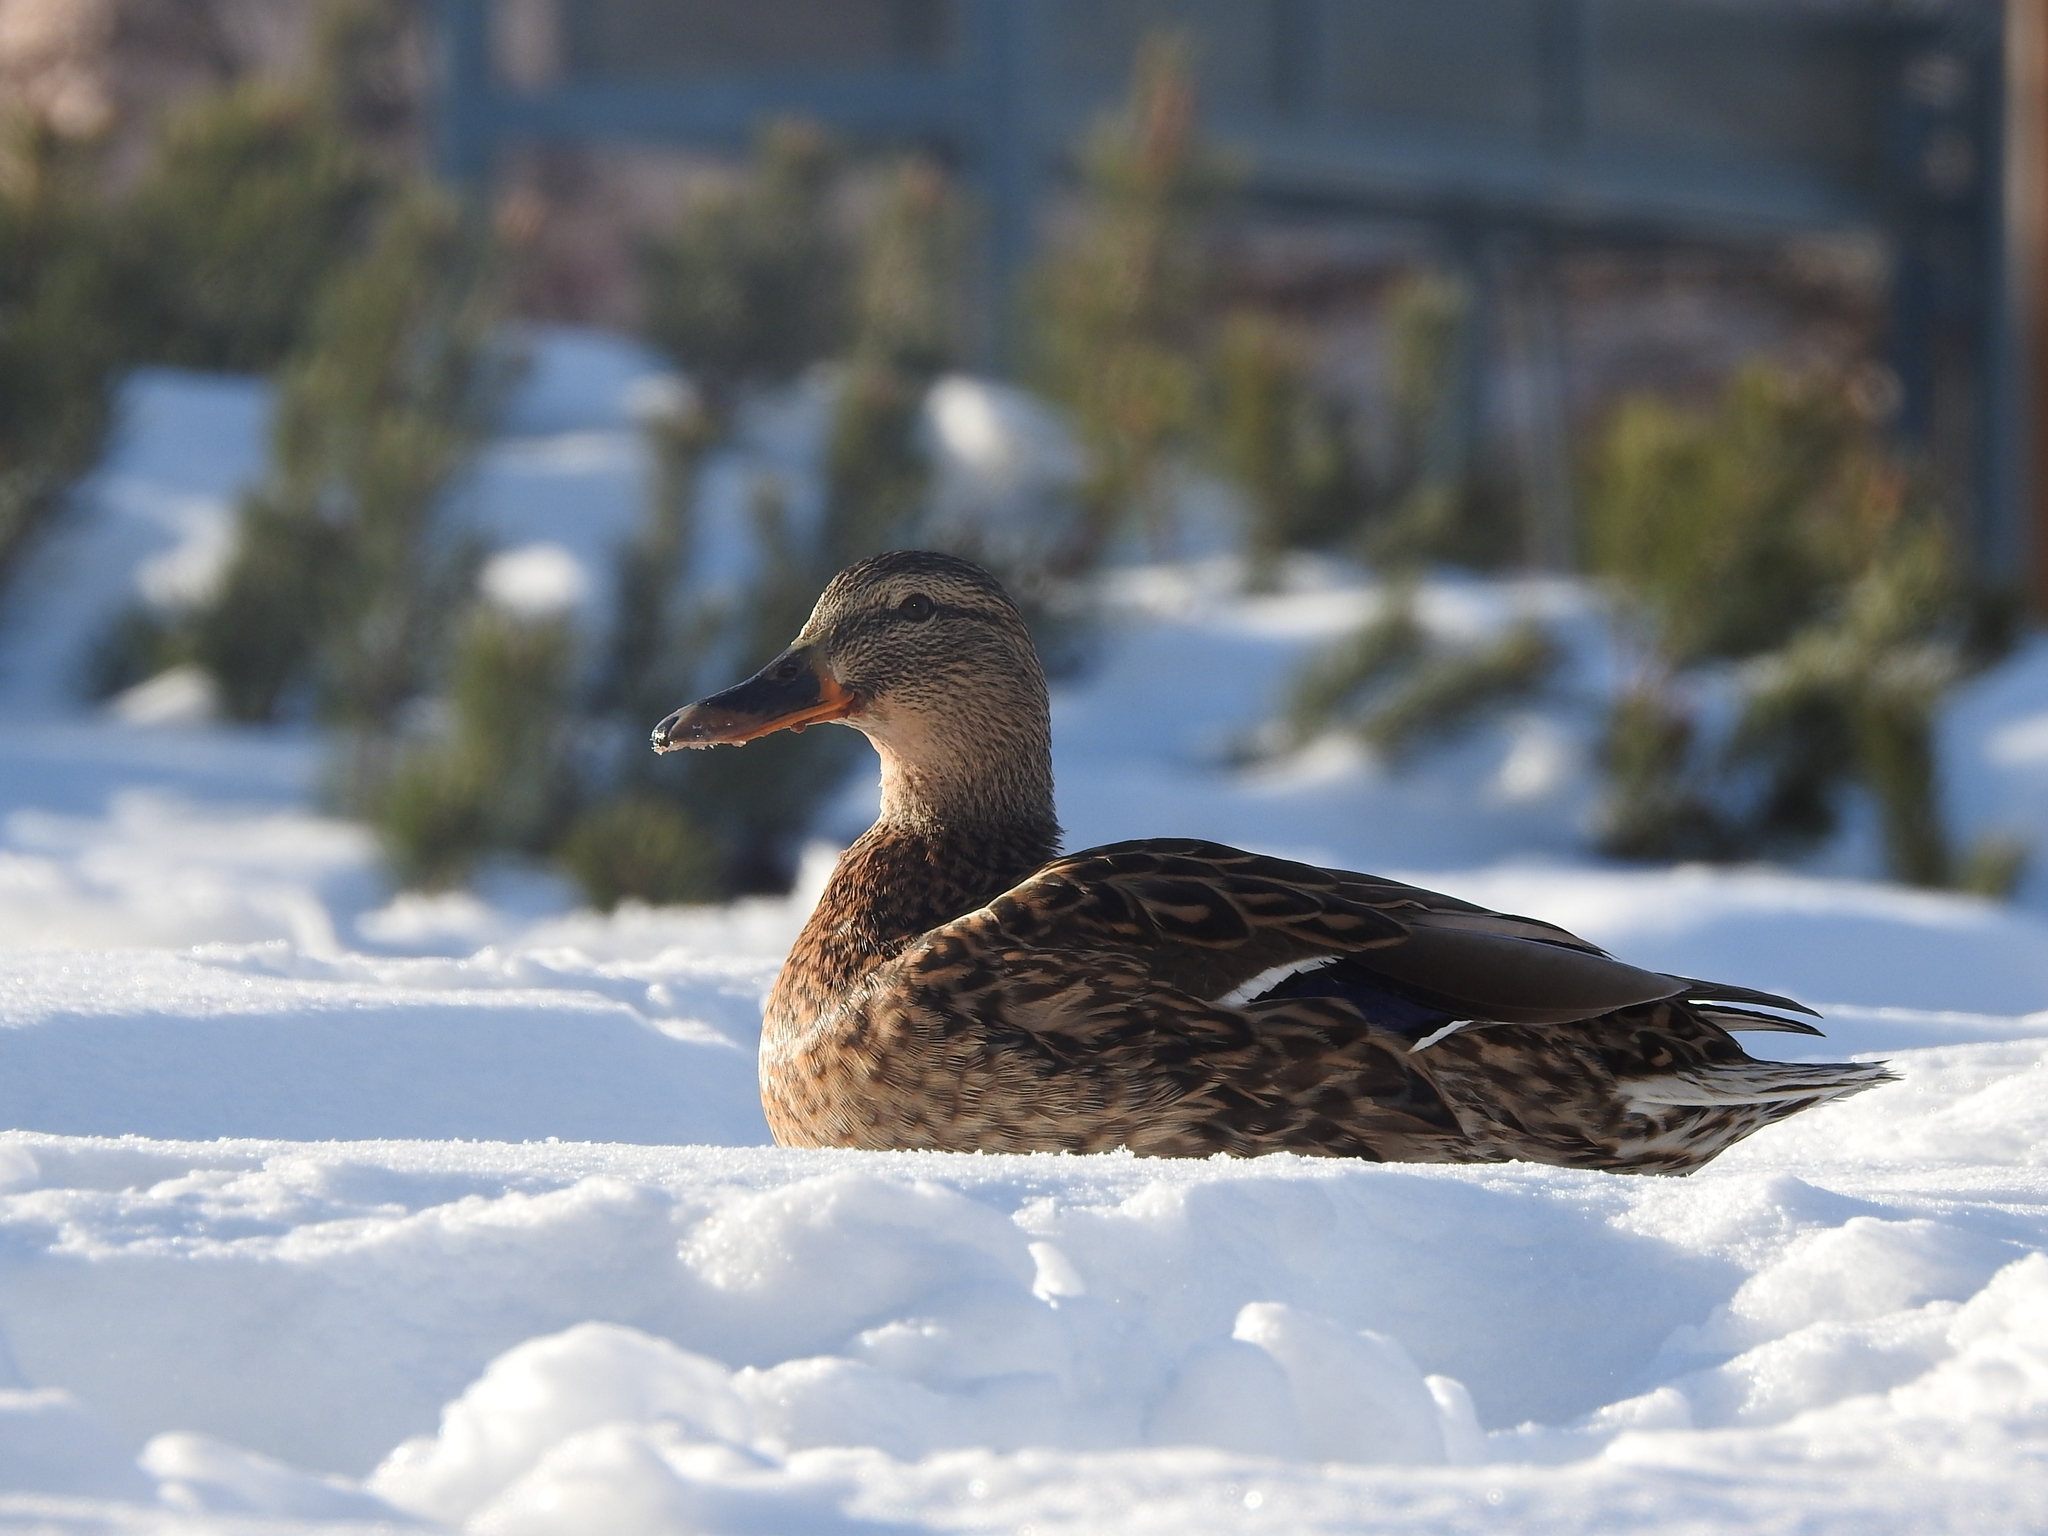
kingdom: Animalia
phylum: Chordata
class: Aves
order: Anseriformes
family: Anatidae
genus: Anas
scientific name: Anas platyrhynchos
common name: Mallard
